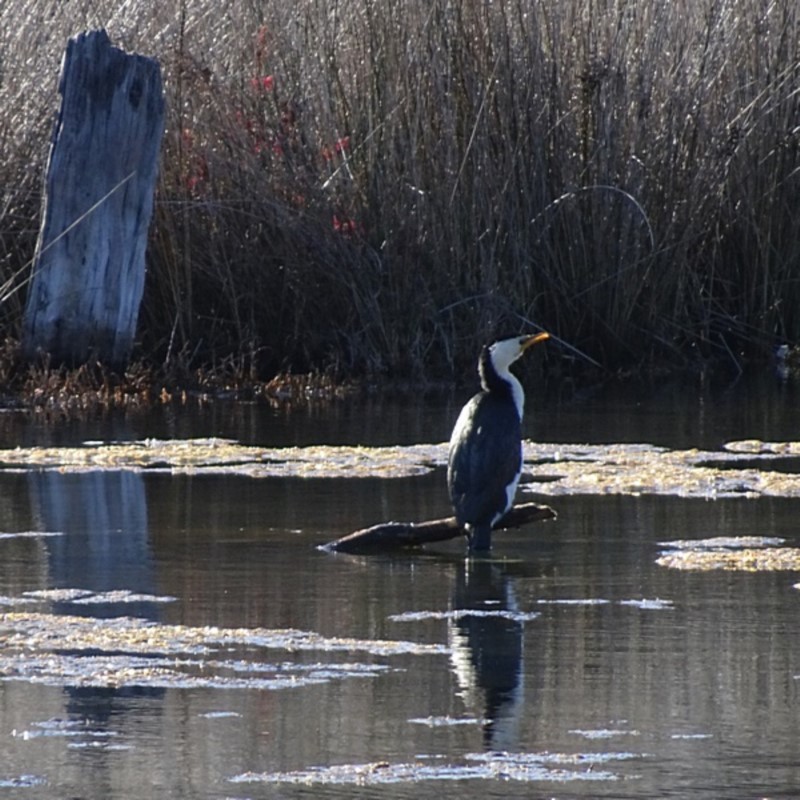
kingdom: Animalia
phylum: Chordata
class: Aves
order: Suliformes
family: Phalacrocoracidae
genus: Microcarbo
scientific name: Microcarbo melanoleucos
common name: Little pied cormorant
